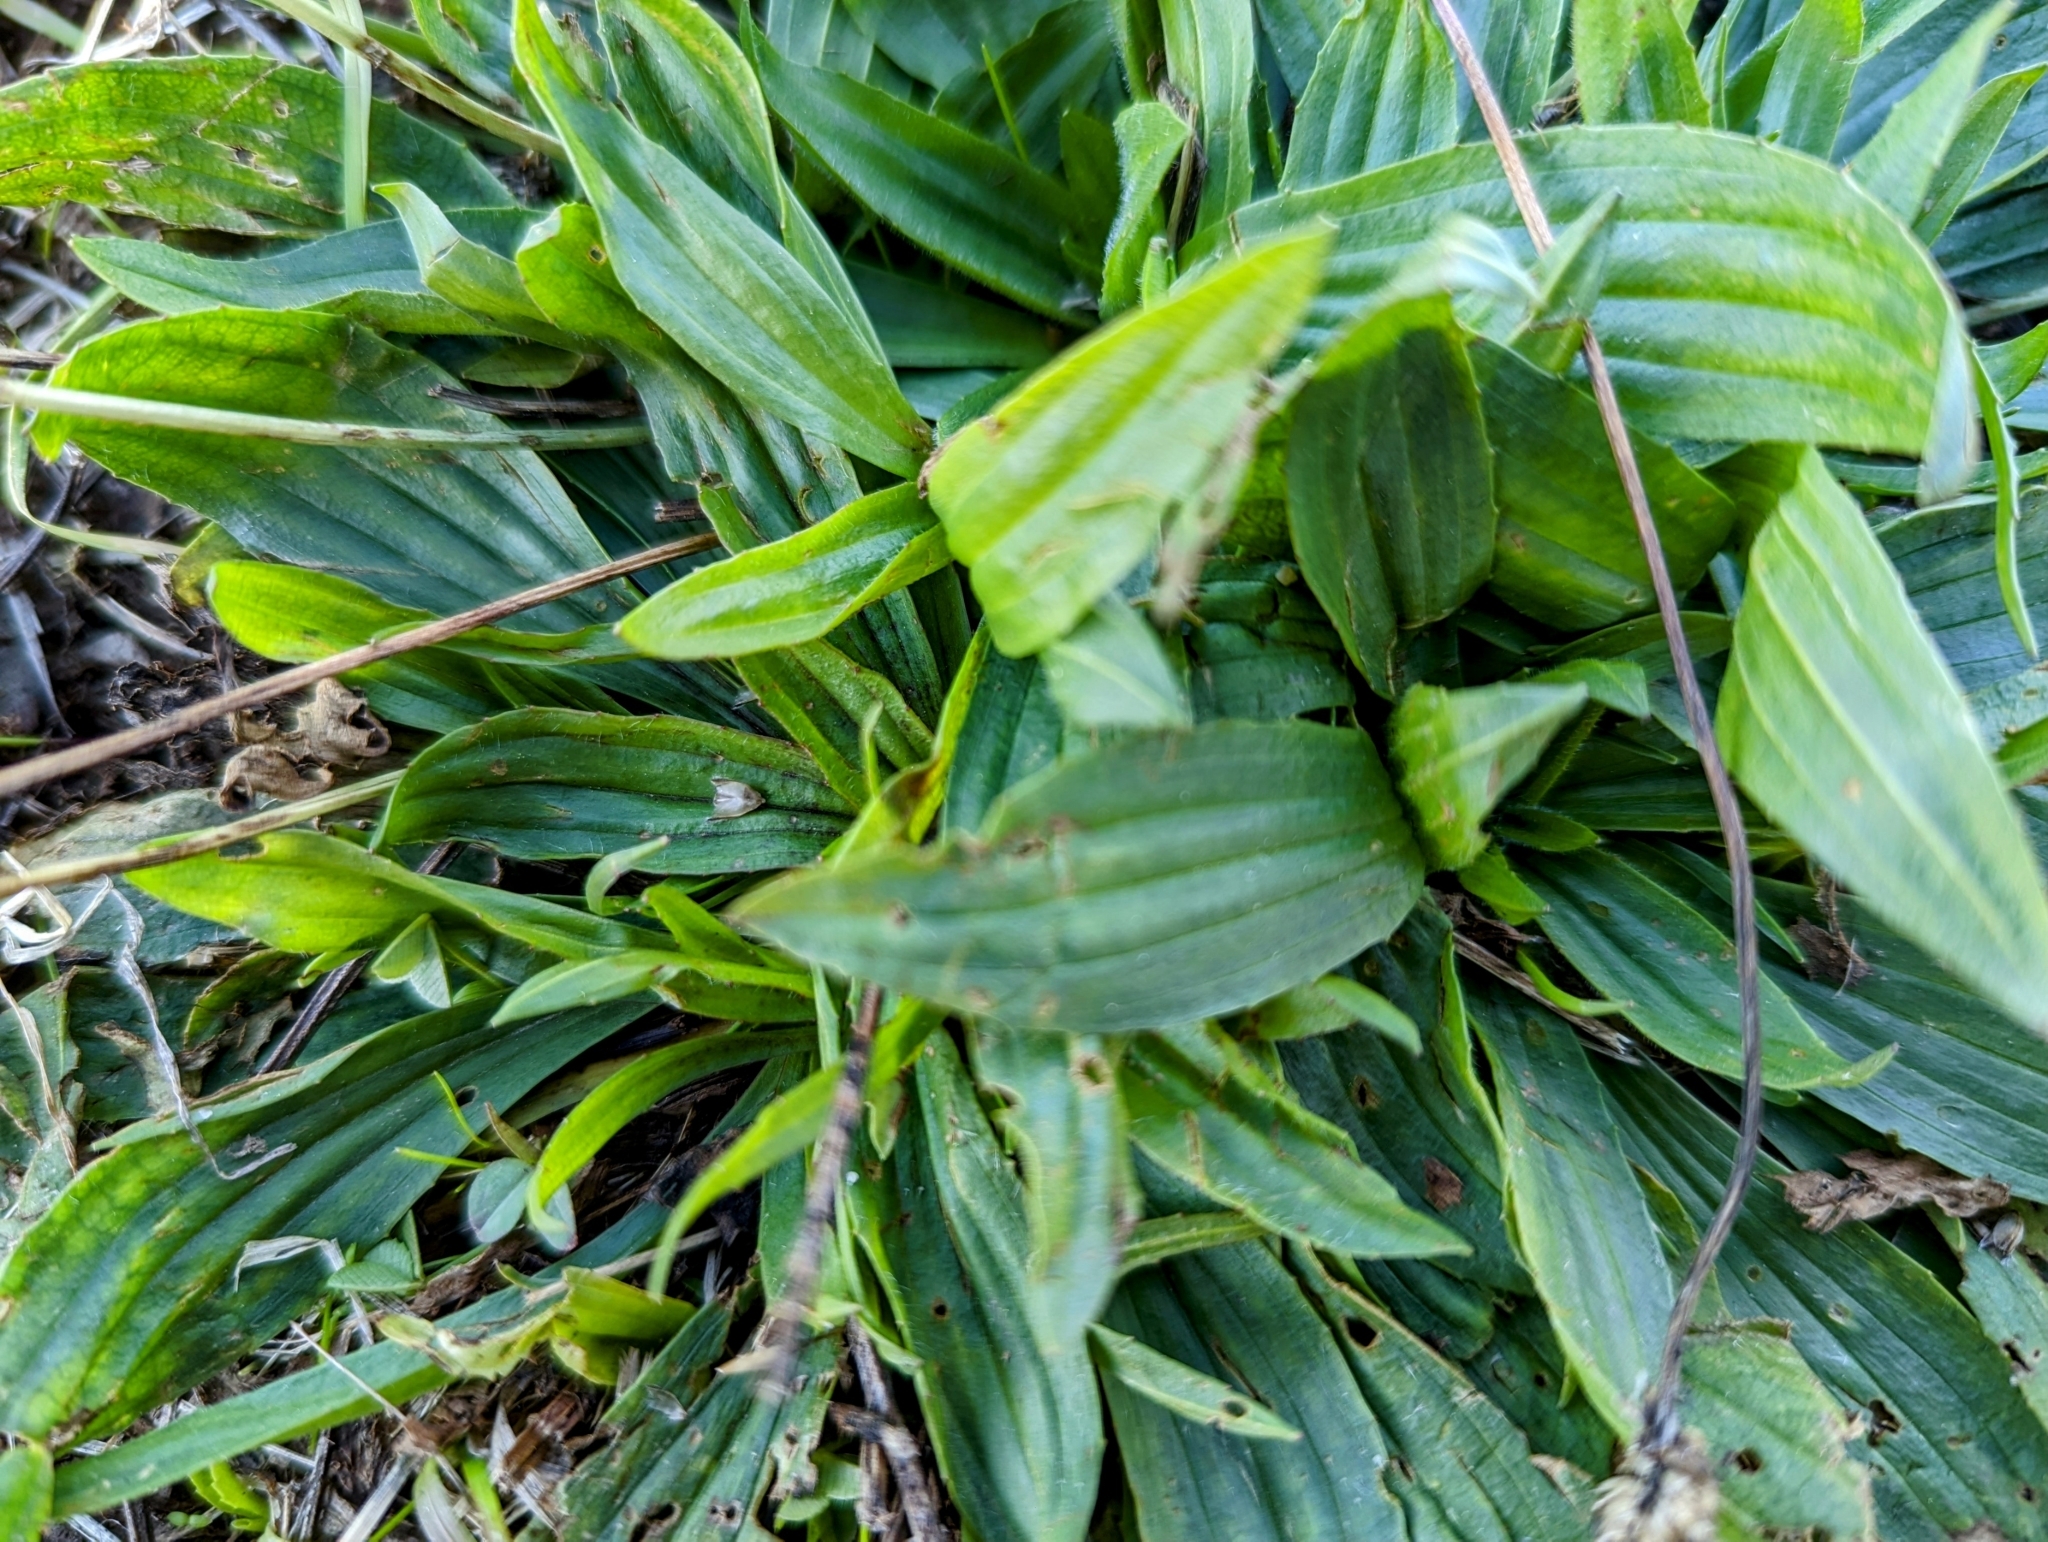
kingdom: Plantae
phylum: Tracheophyta
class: Magnoliopsida
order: Lamiales
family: Plantaginaceae
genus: Plantago
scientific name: Plantago lanceolata
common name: Ribwort plantain
